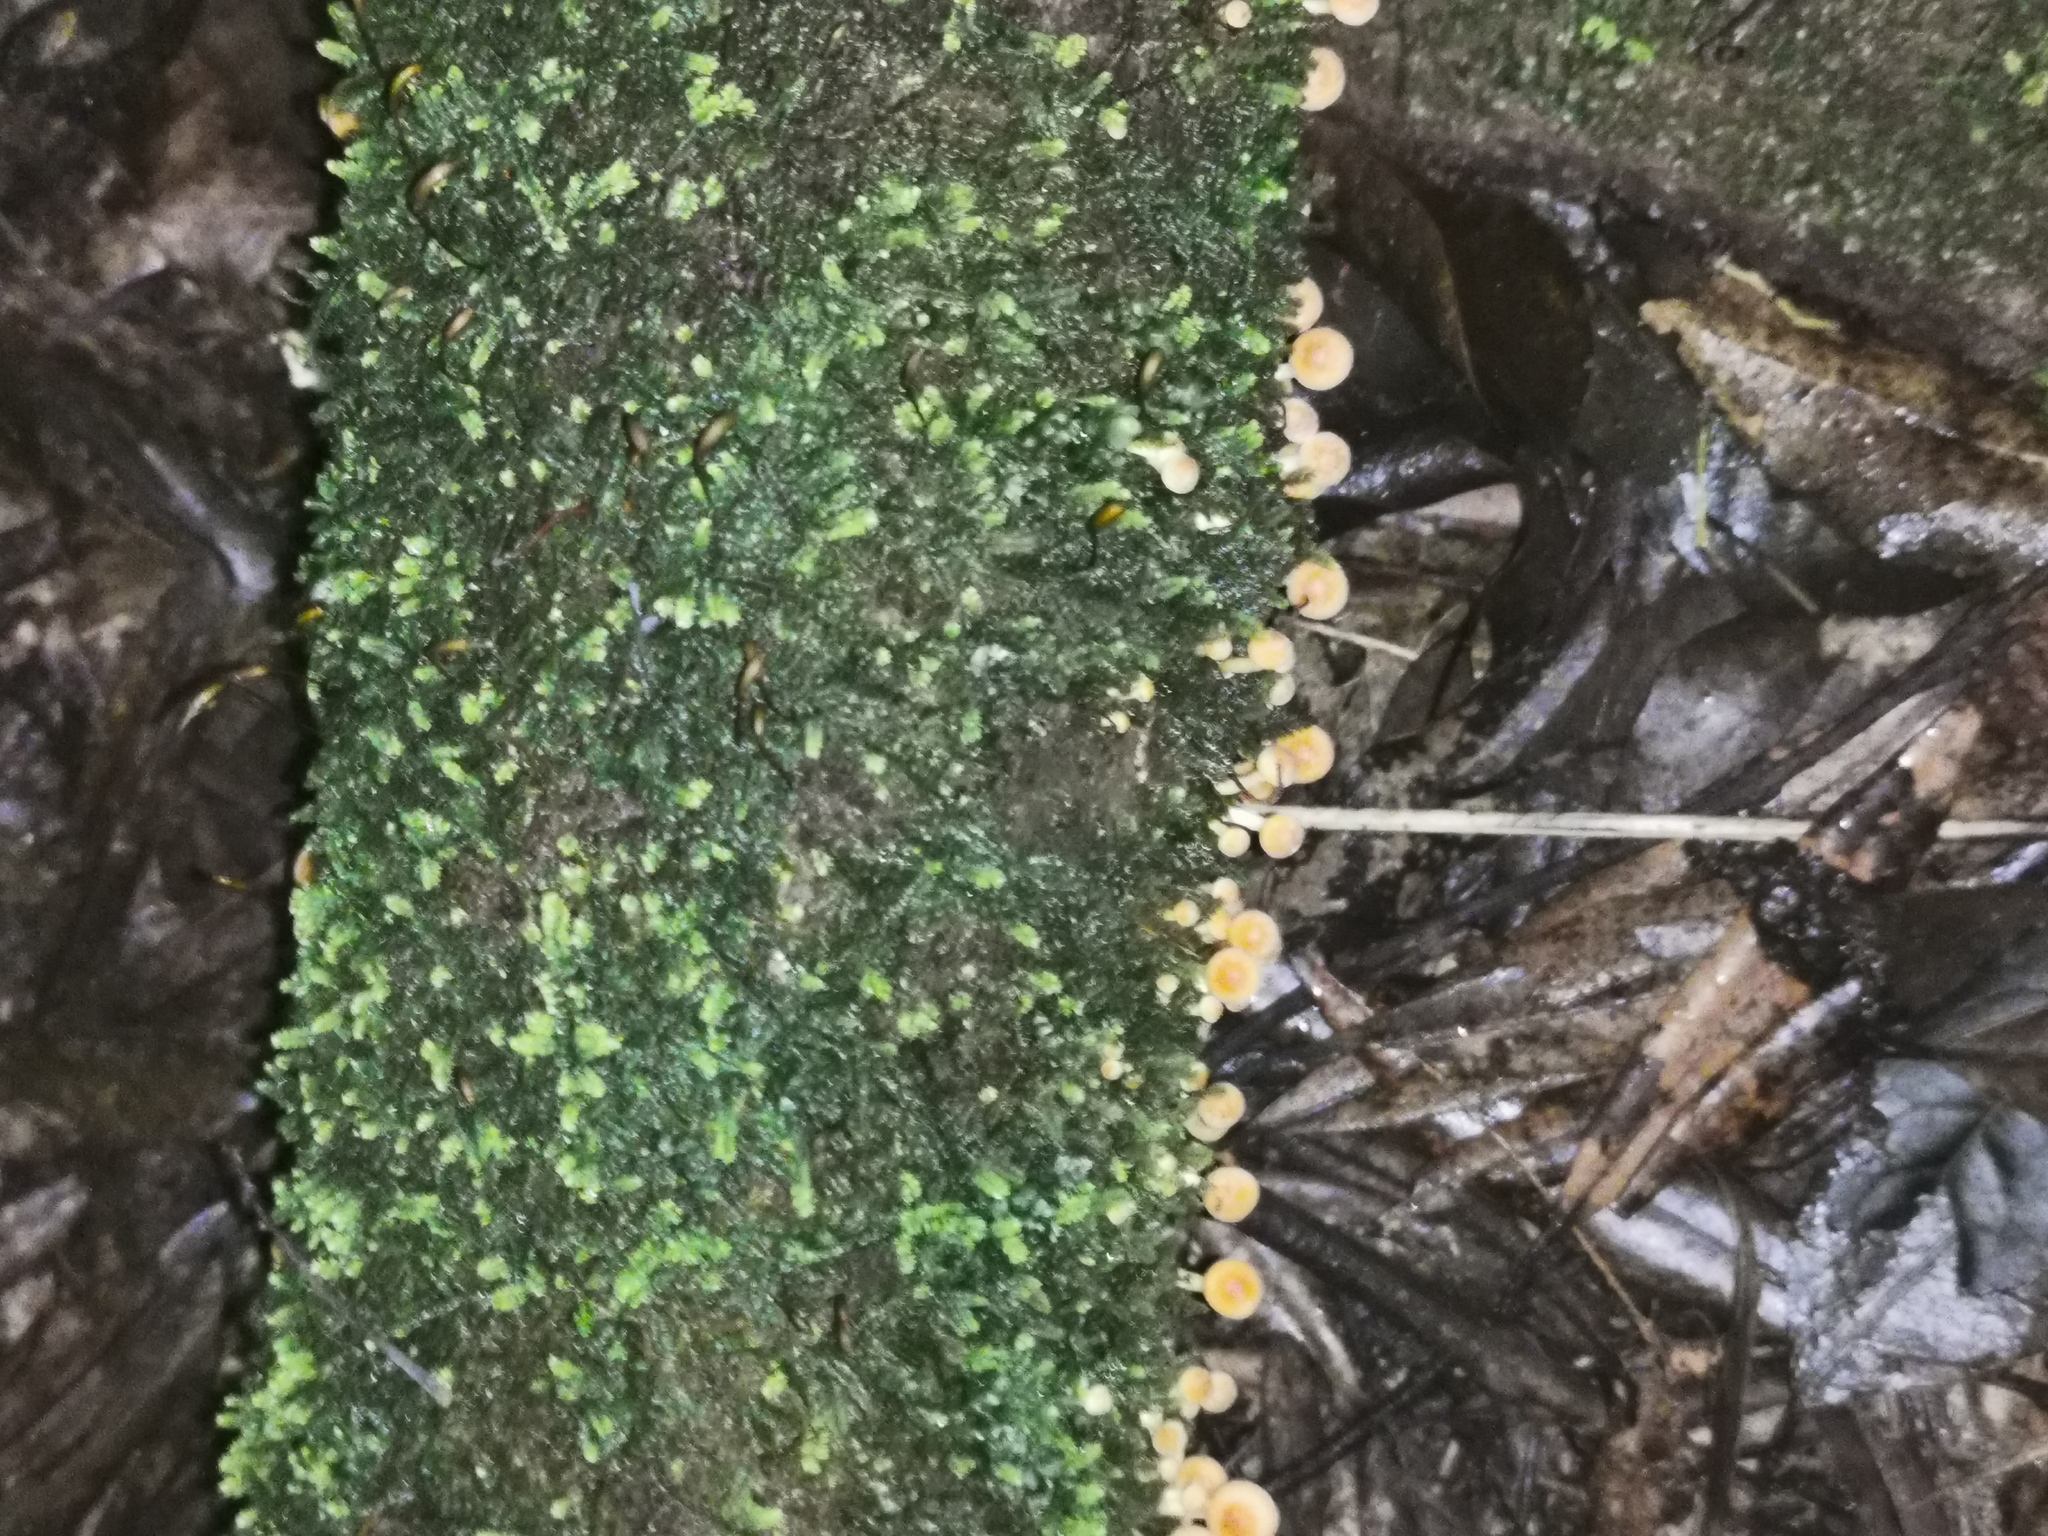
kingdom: Fungi
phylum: Basidiomycota
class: Agaricomycetes
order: Agaricales
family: Strophariaceae
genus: Hypholoma
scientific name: Hypholoma acutum
